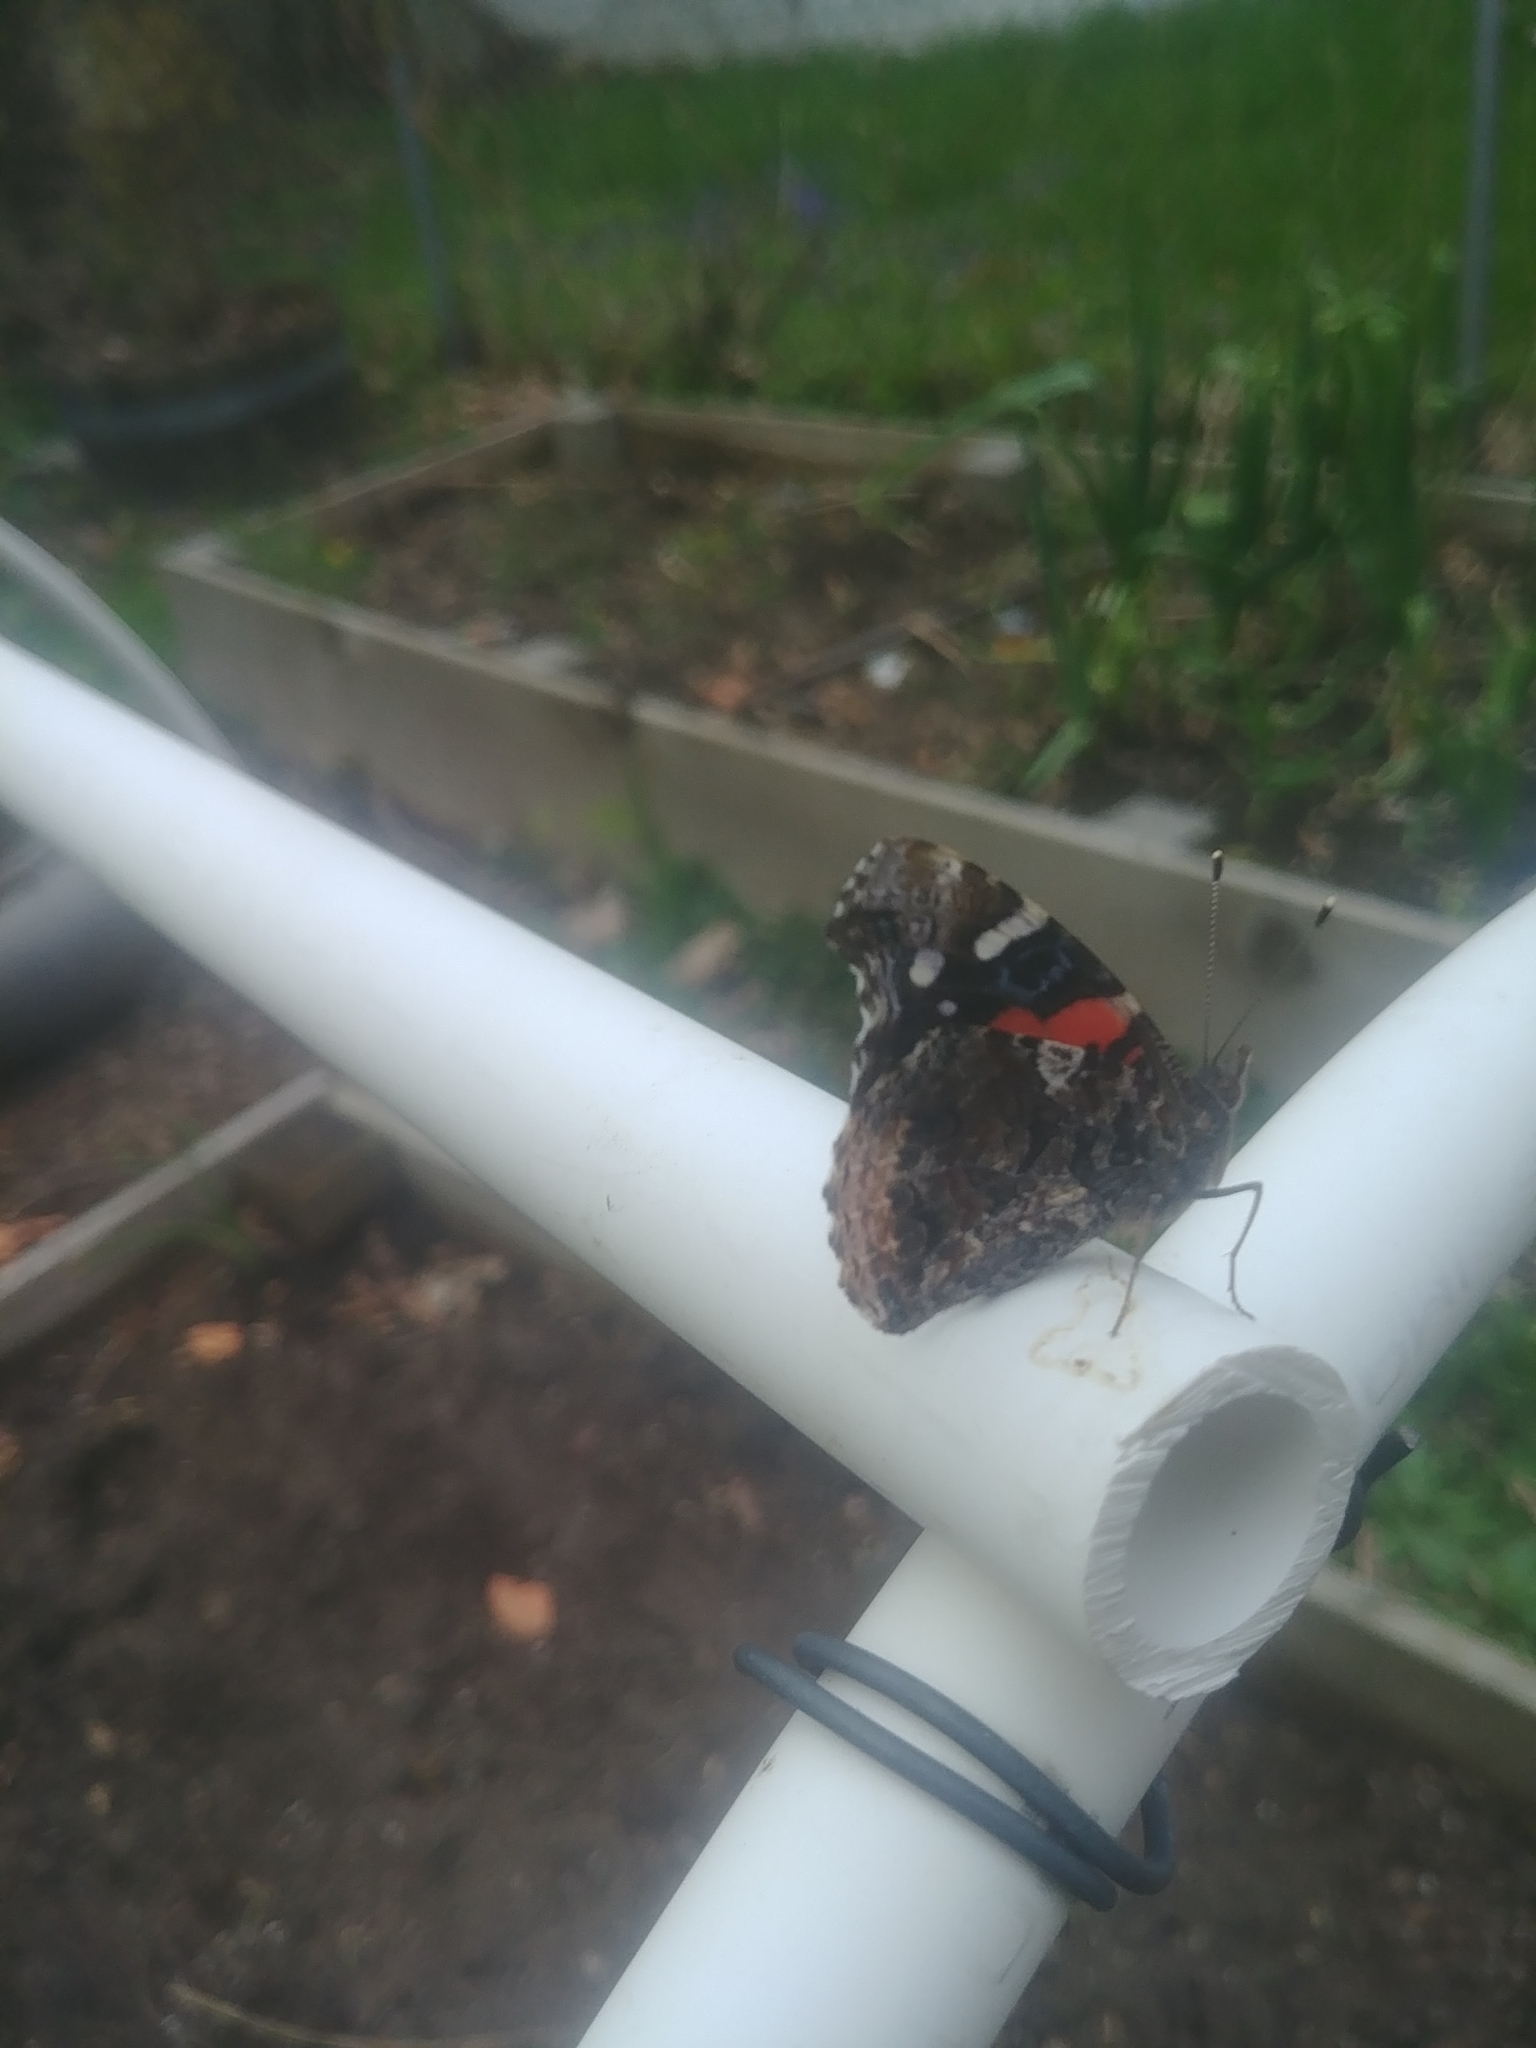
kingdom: Animalia
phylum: Arthropoda
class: Insecta
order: Lepidoptera
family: Nymphalidae
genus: Vanessa
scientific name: Vanessa atalanta
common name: Red admiral
